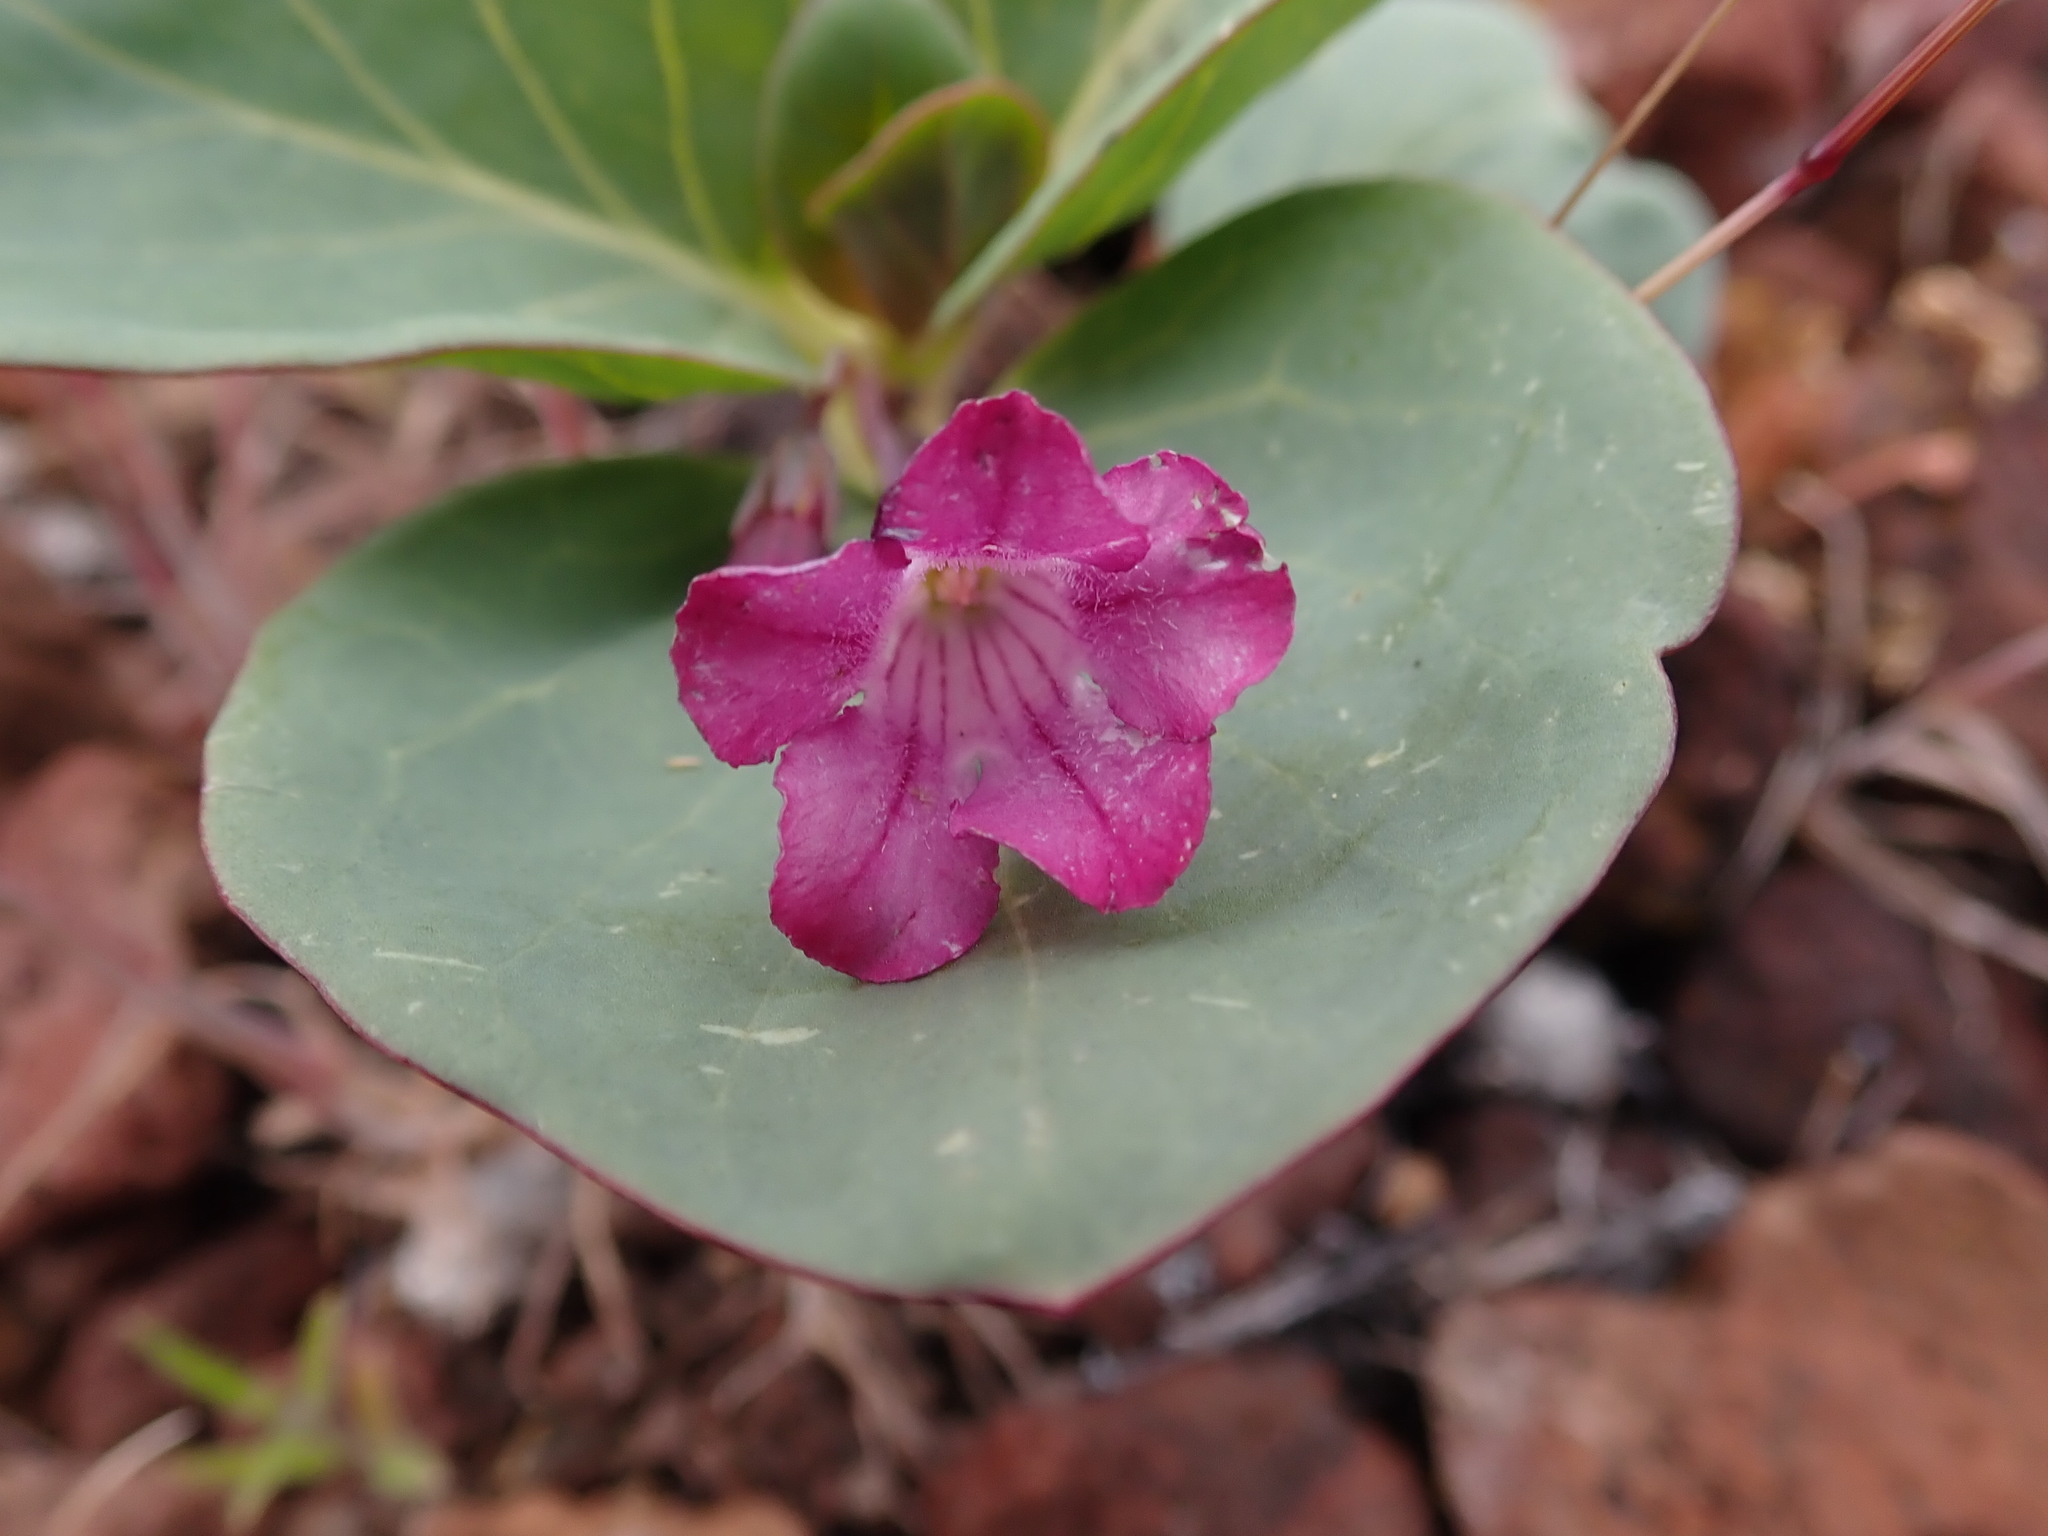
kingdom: Plantae
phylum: Tracheophyta
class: Magnoliopsida
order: Gentianales
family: Apocynaceae
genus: Cycladenia
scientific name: Cycladenia humilis
